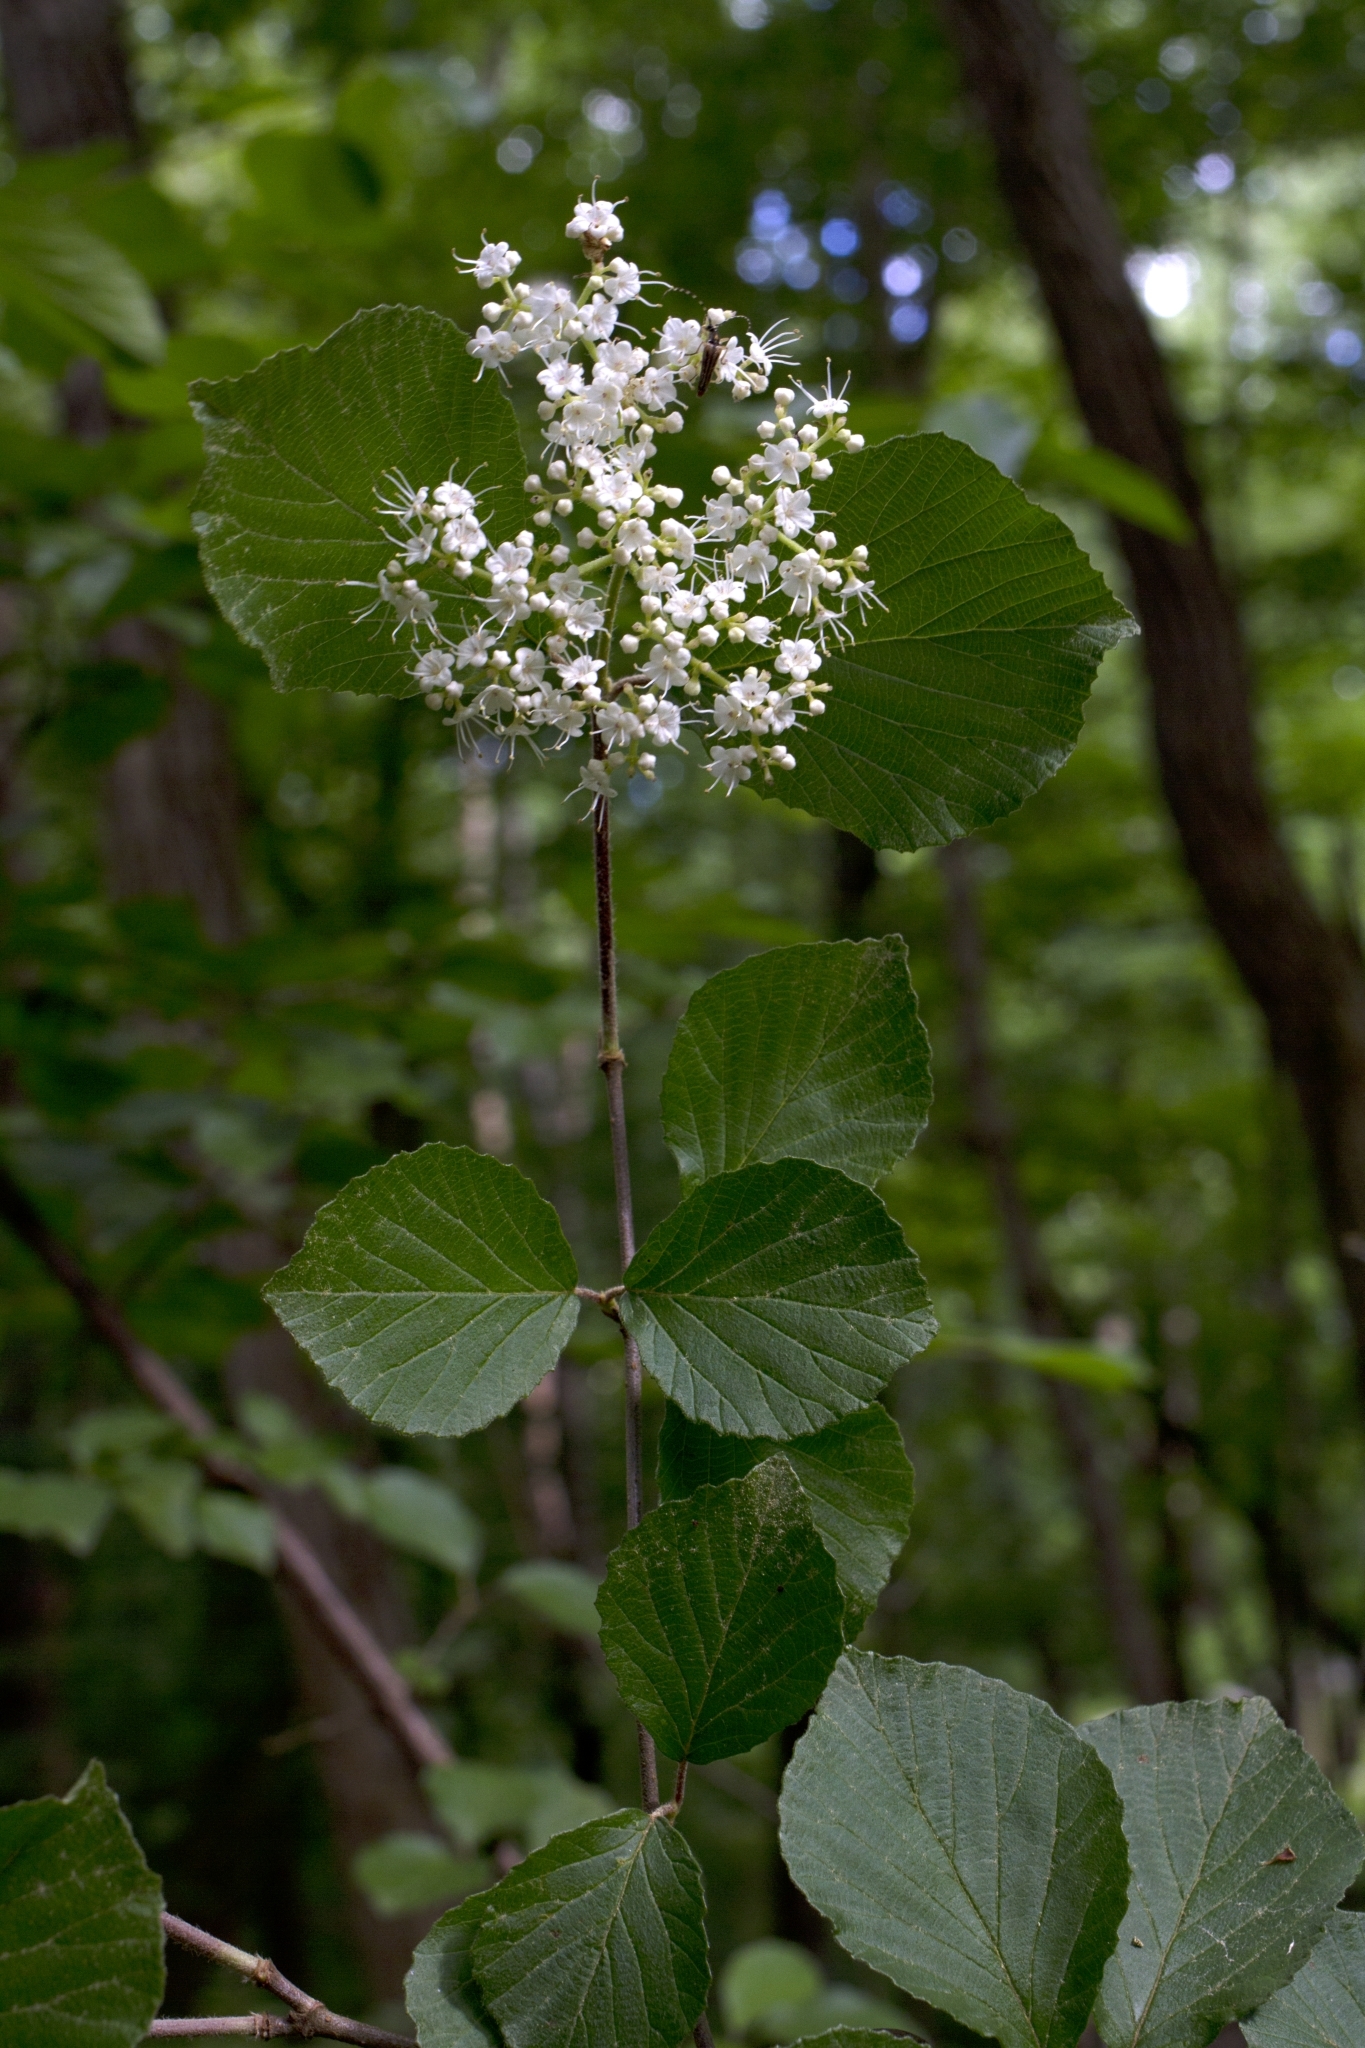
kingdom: Plantae
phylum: Tracheophyta
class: Magnoliopsida
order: Dipsacales
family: Viburnaceae
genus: Viburnum
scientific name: Viburnum dilatatum
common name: Linden arrowwood
